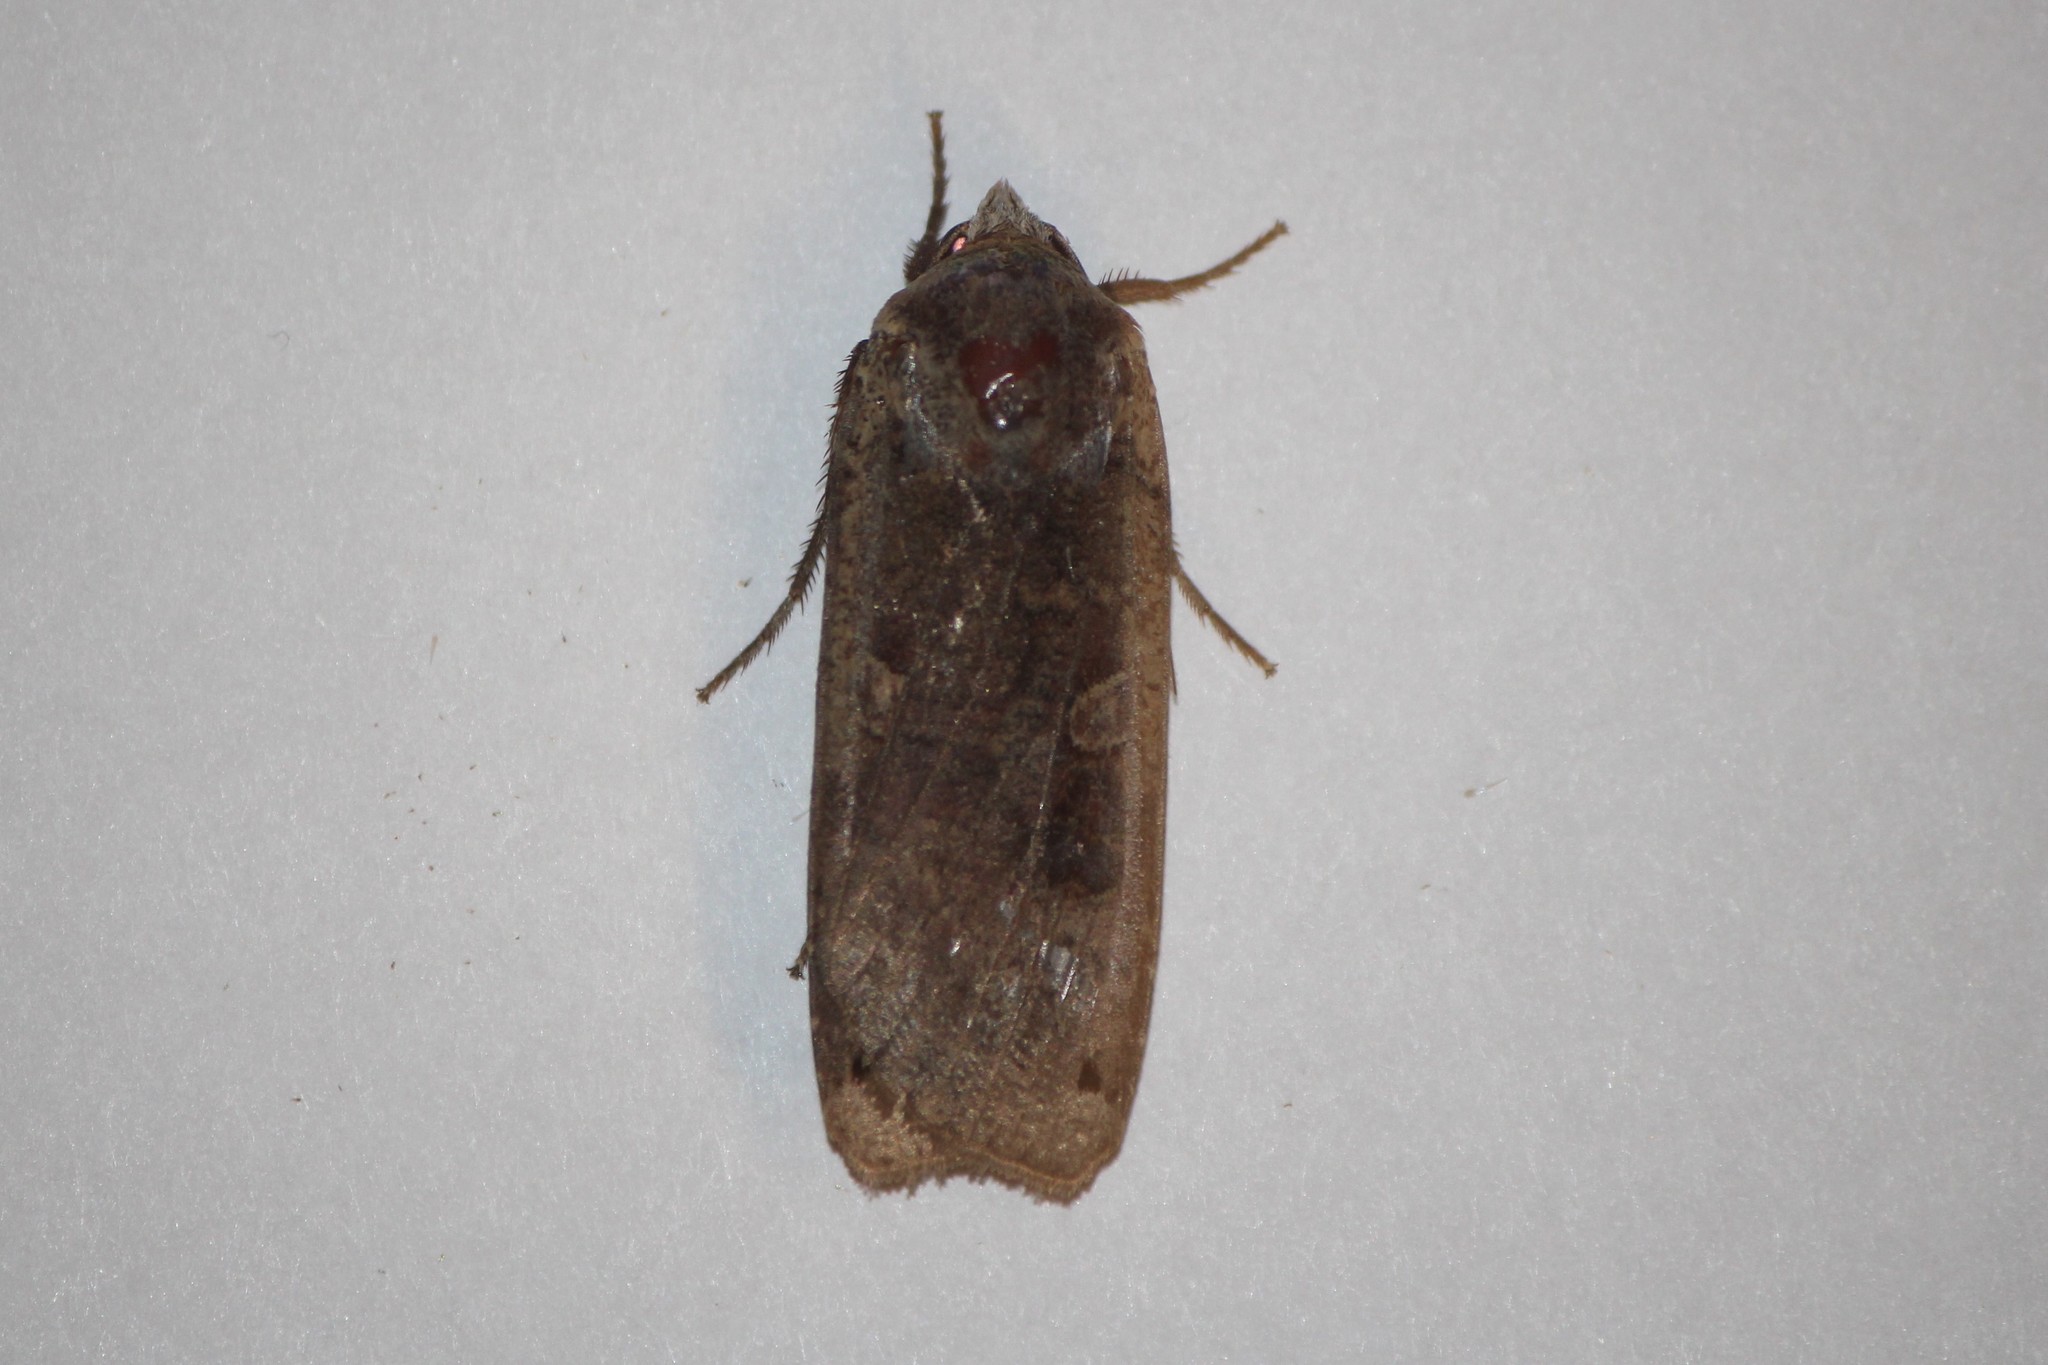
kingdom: Animalia
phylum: Arthropoda
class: Insecta
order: Lepidoptera
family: Noctuidae
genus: Noctua
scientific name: Noctua pronuba
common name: Large yellow underwing
